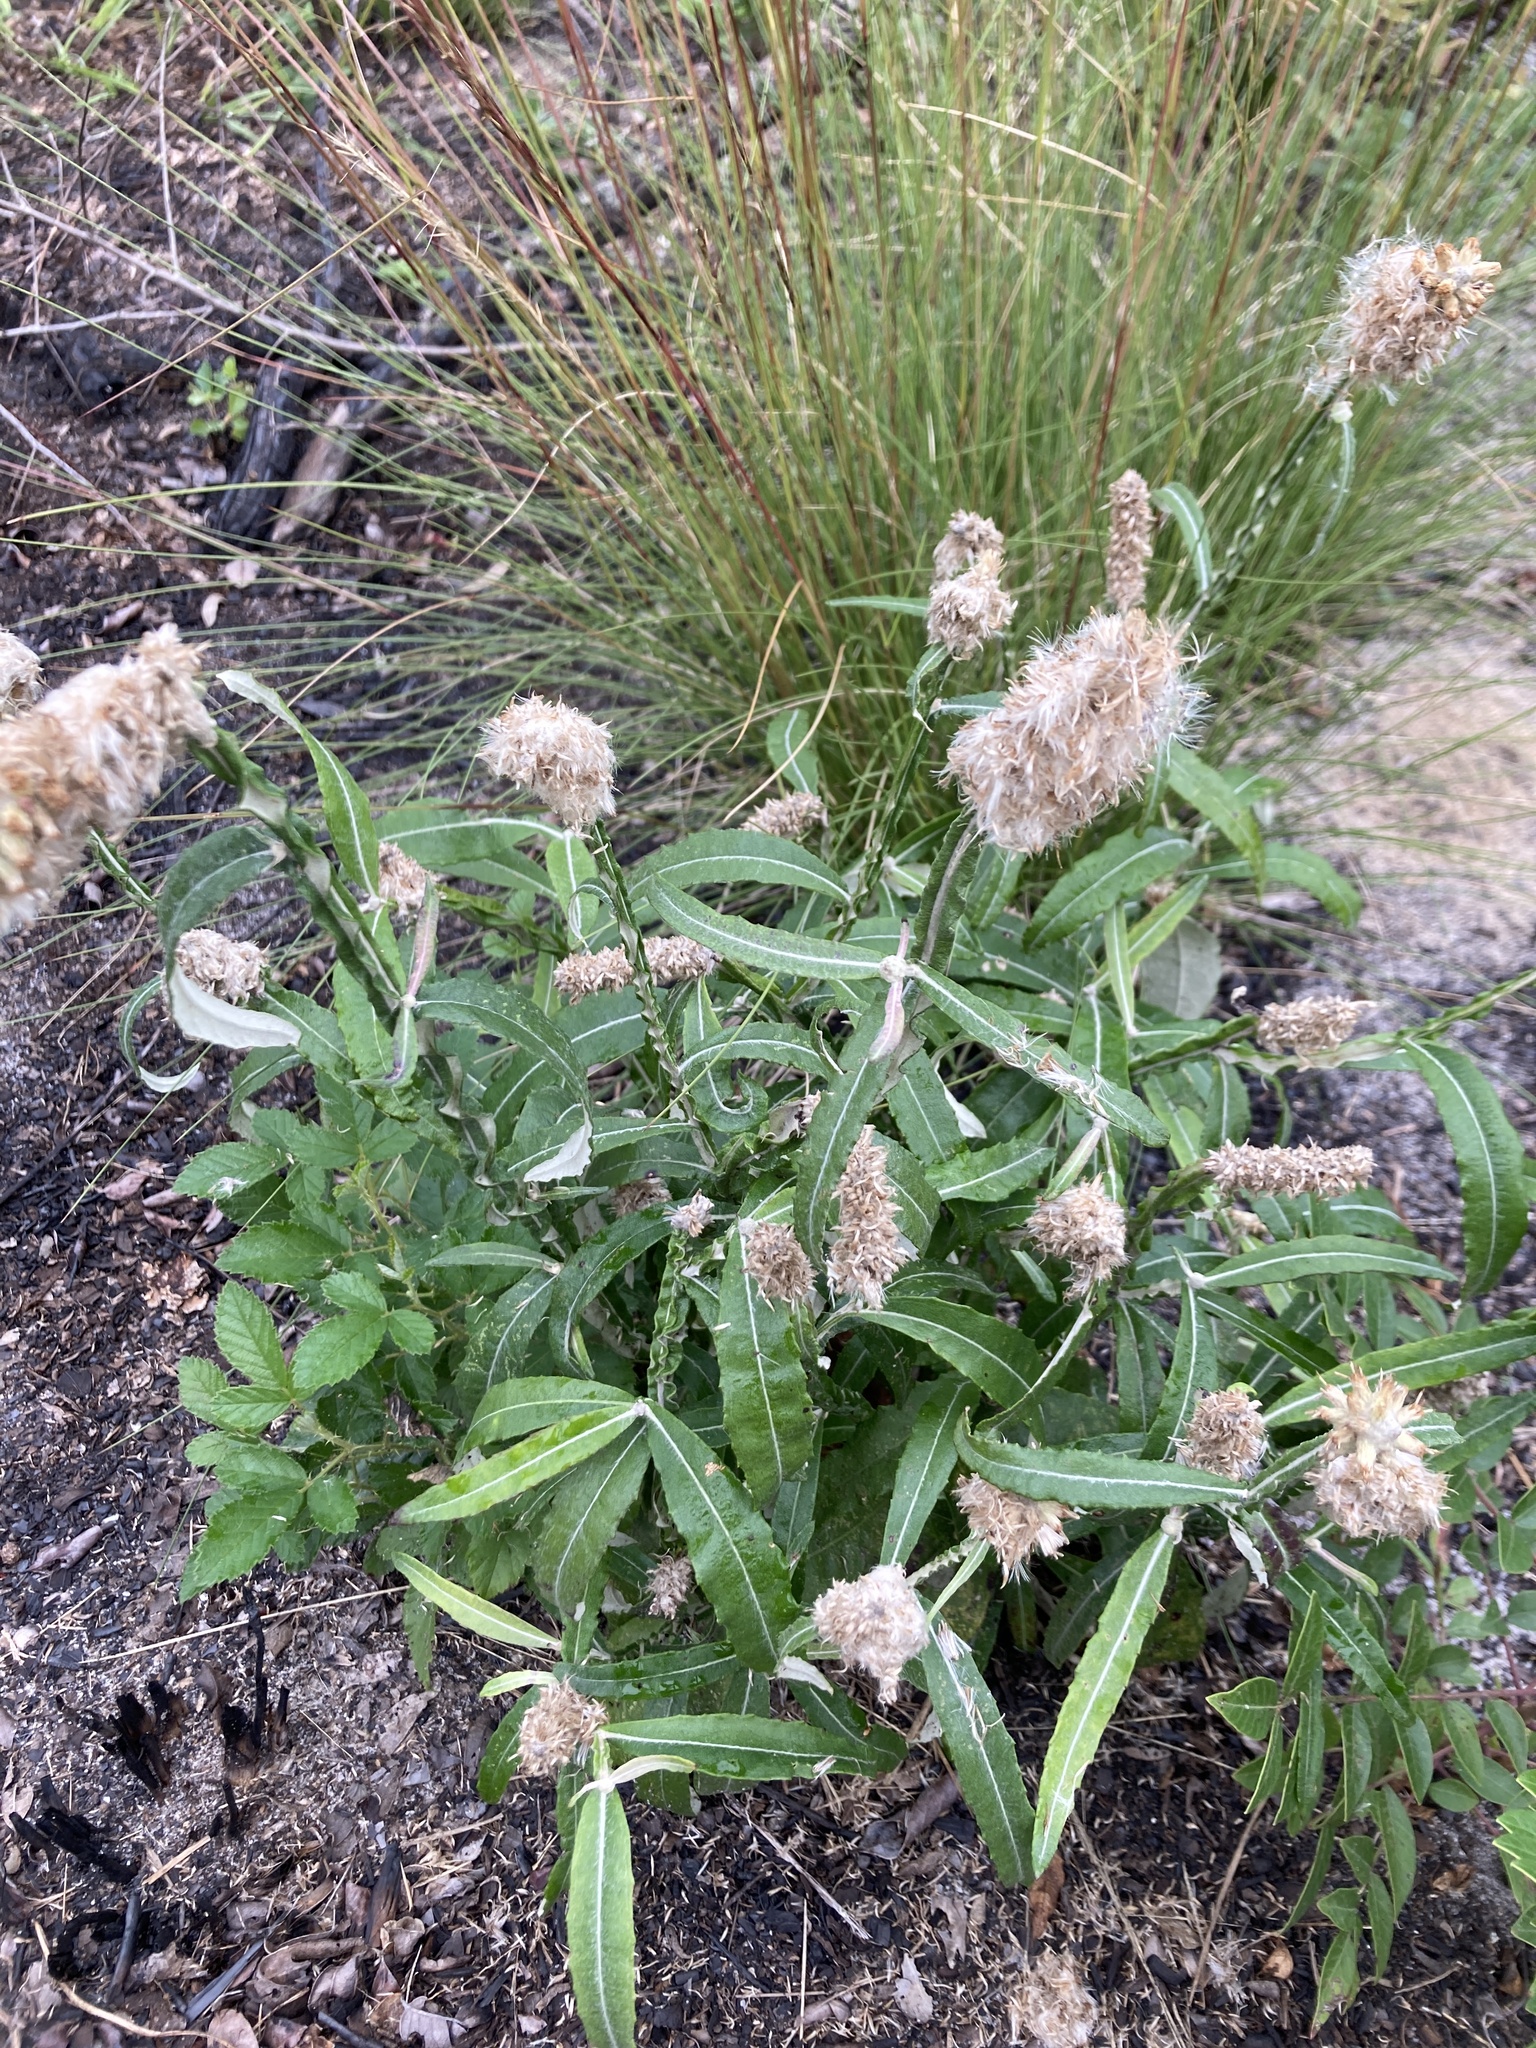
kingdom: Plantae
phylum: Tracheophyta
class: Magnoliopsida
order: Asterales
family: Asteraceae
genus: Pterocaulon
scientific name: Pterocaulon pycnostachyum
